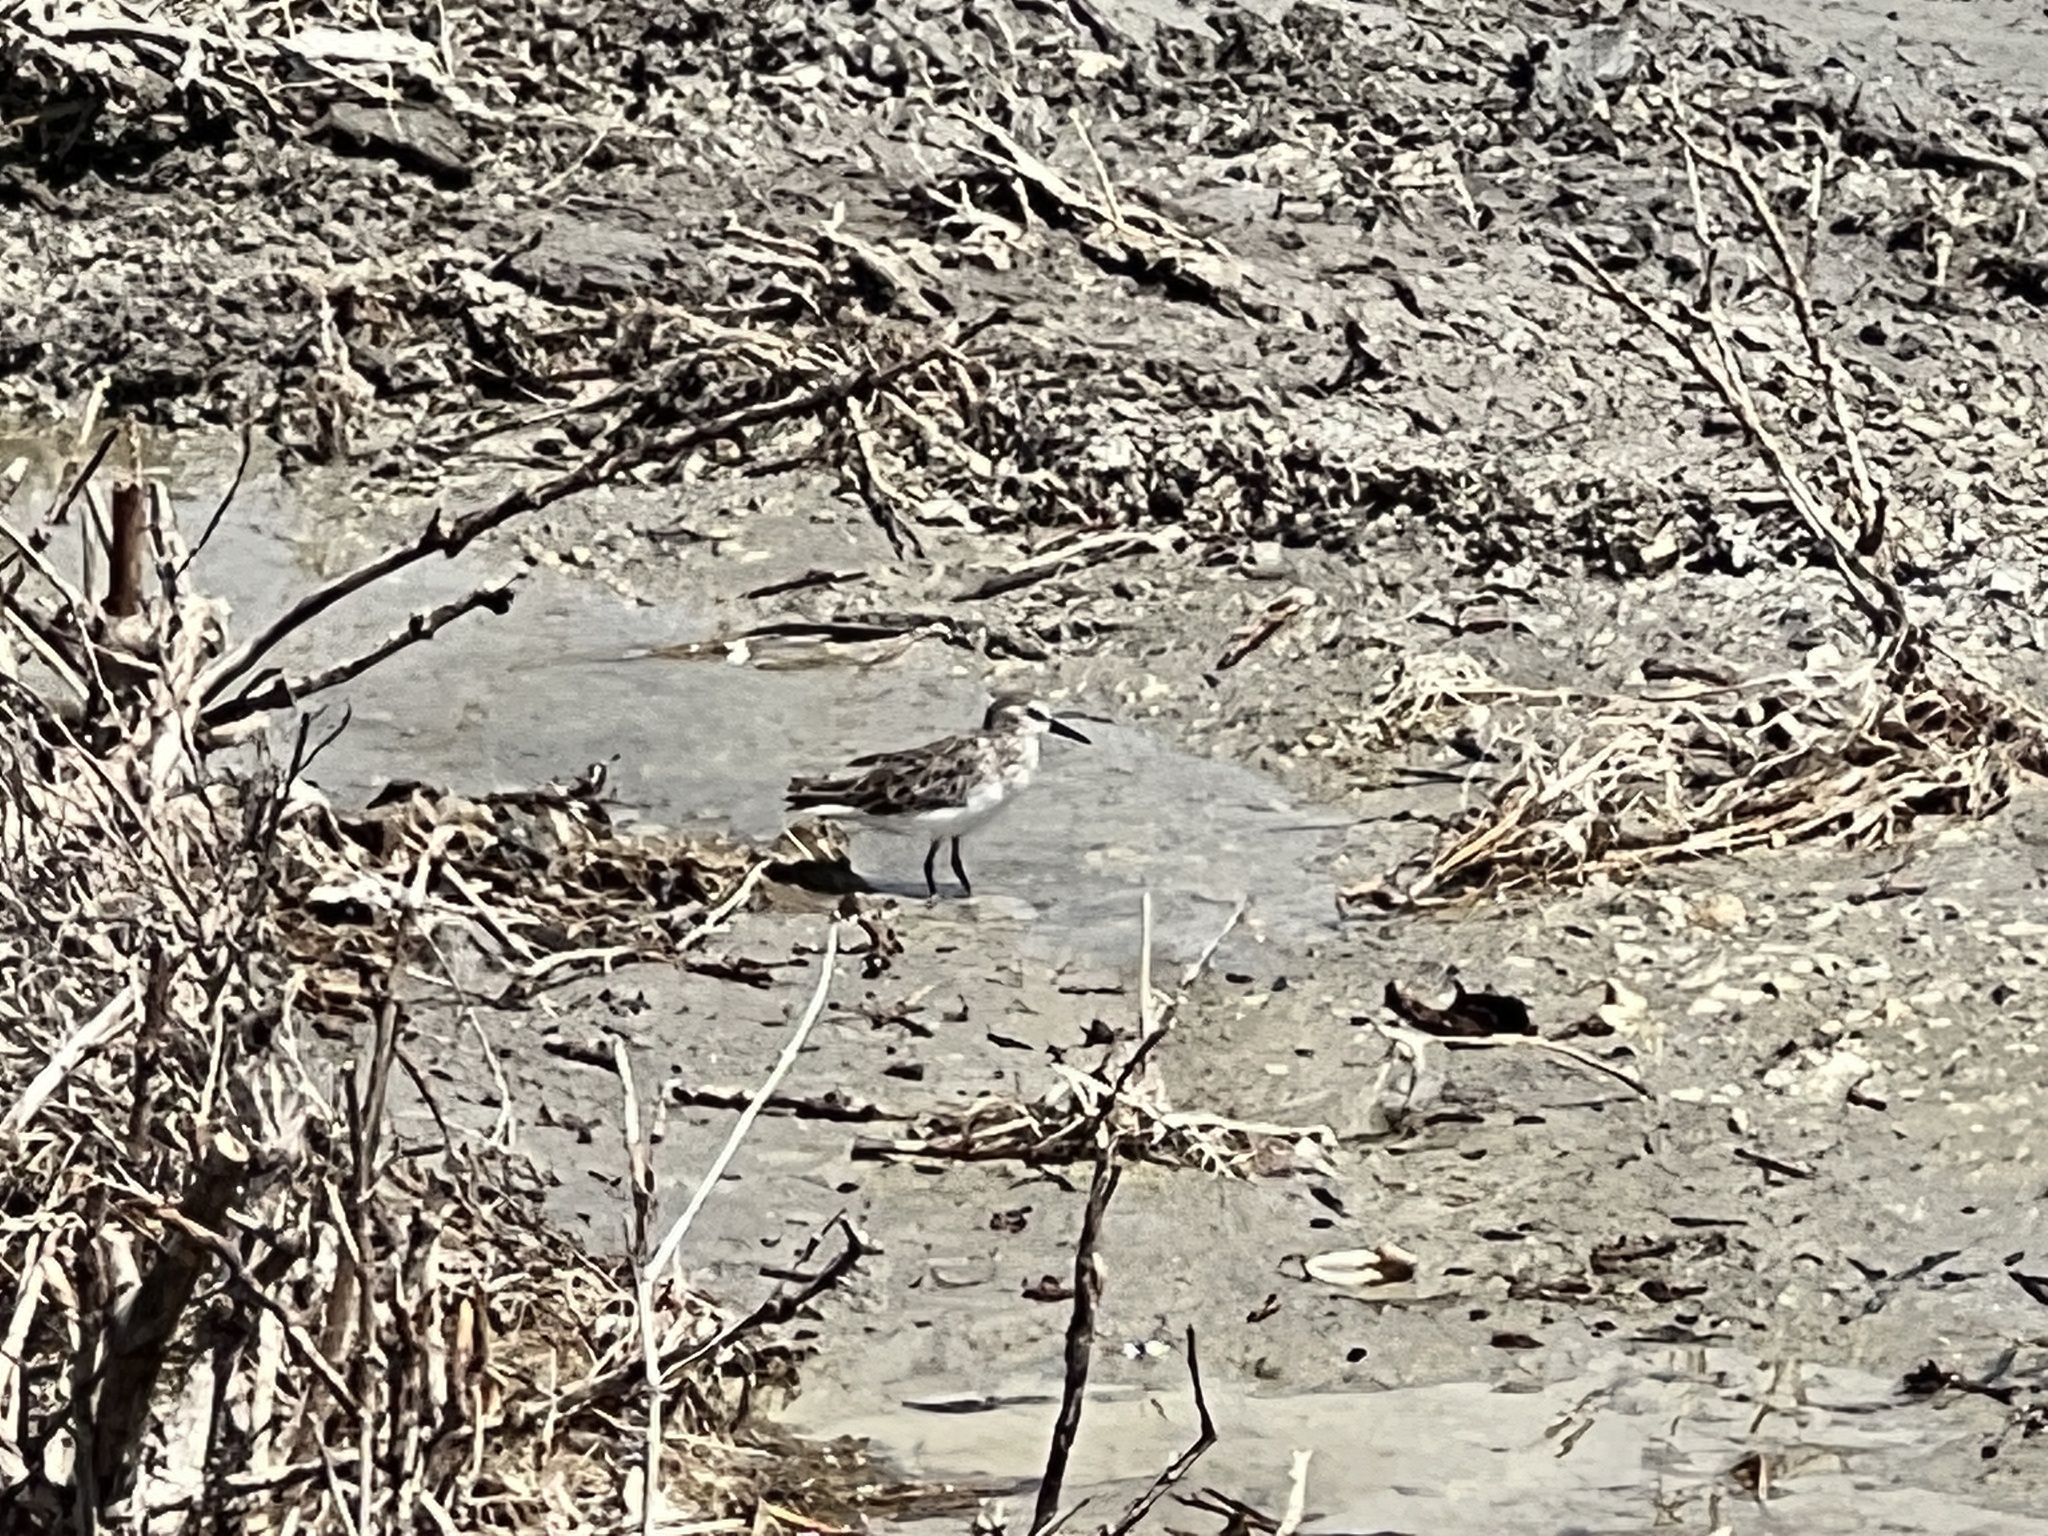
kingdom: Animalia
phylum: Chordata
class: Aves
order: Charadriiformes
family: Scolopacidae
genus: Calidris
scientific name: Calidris minutilla
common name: Least sandpiper
